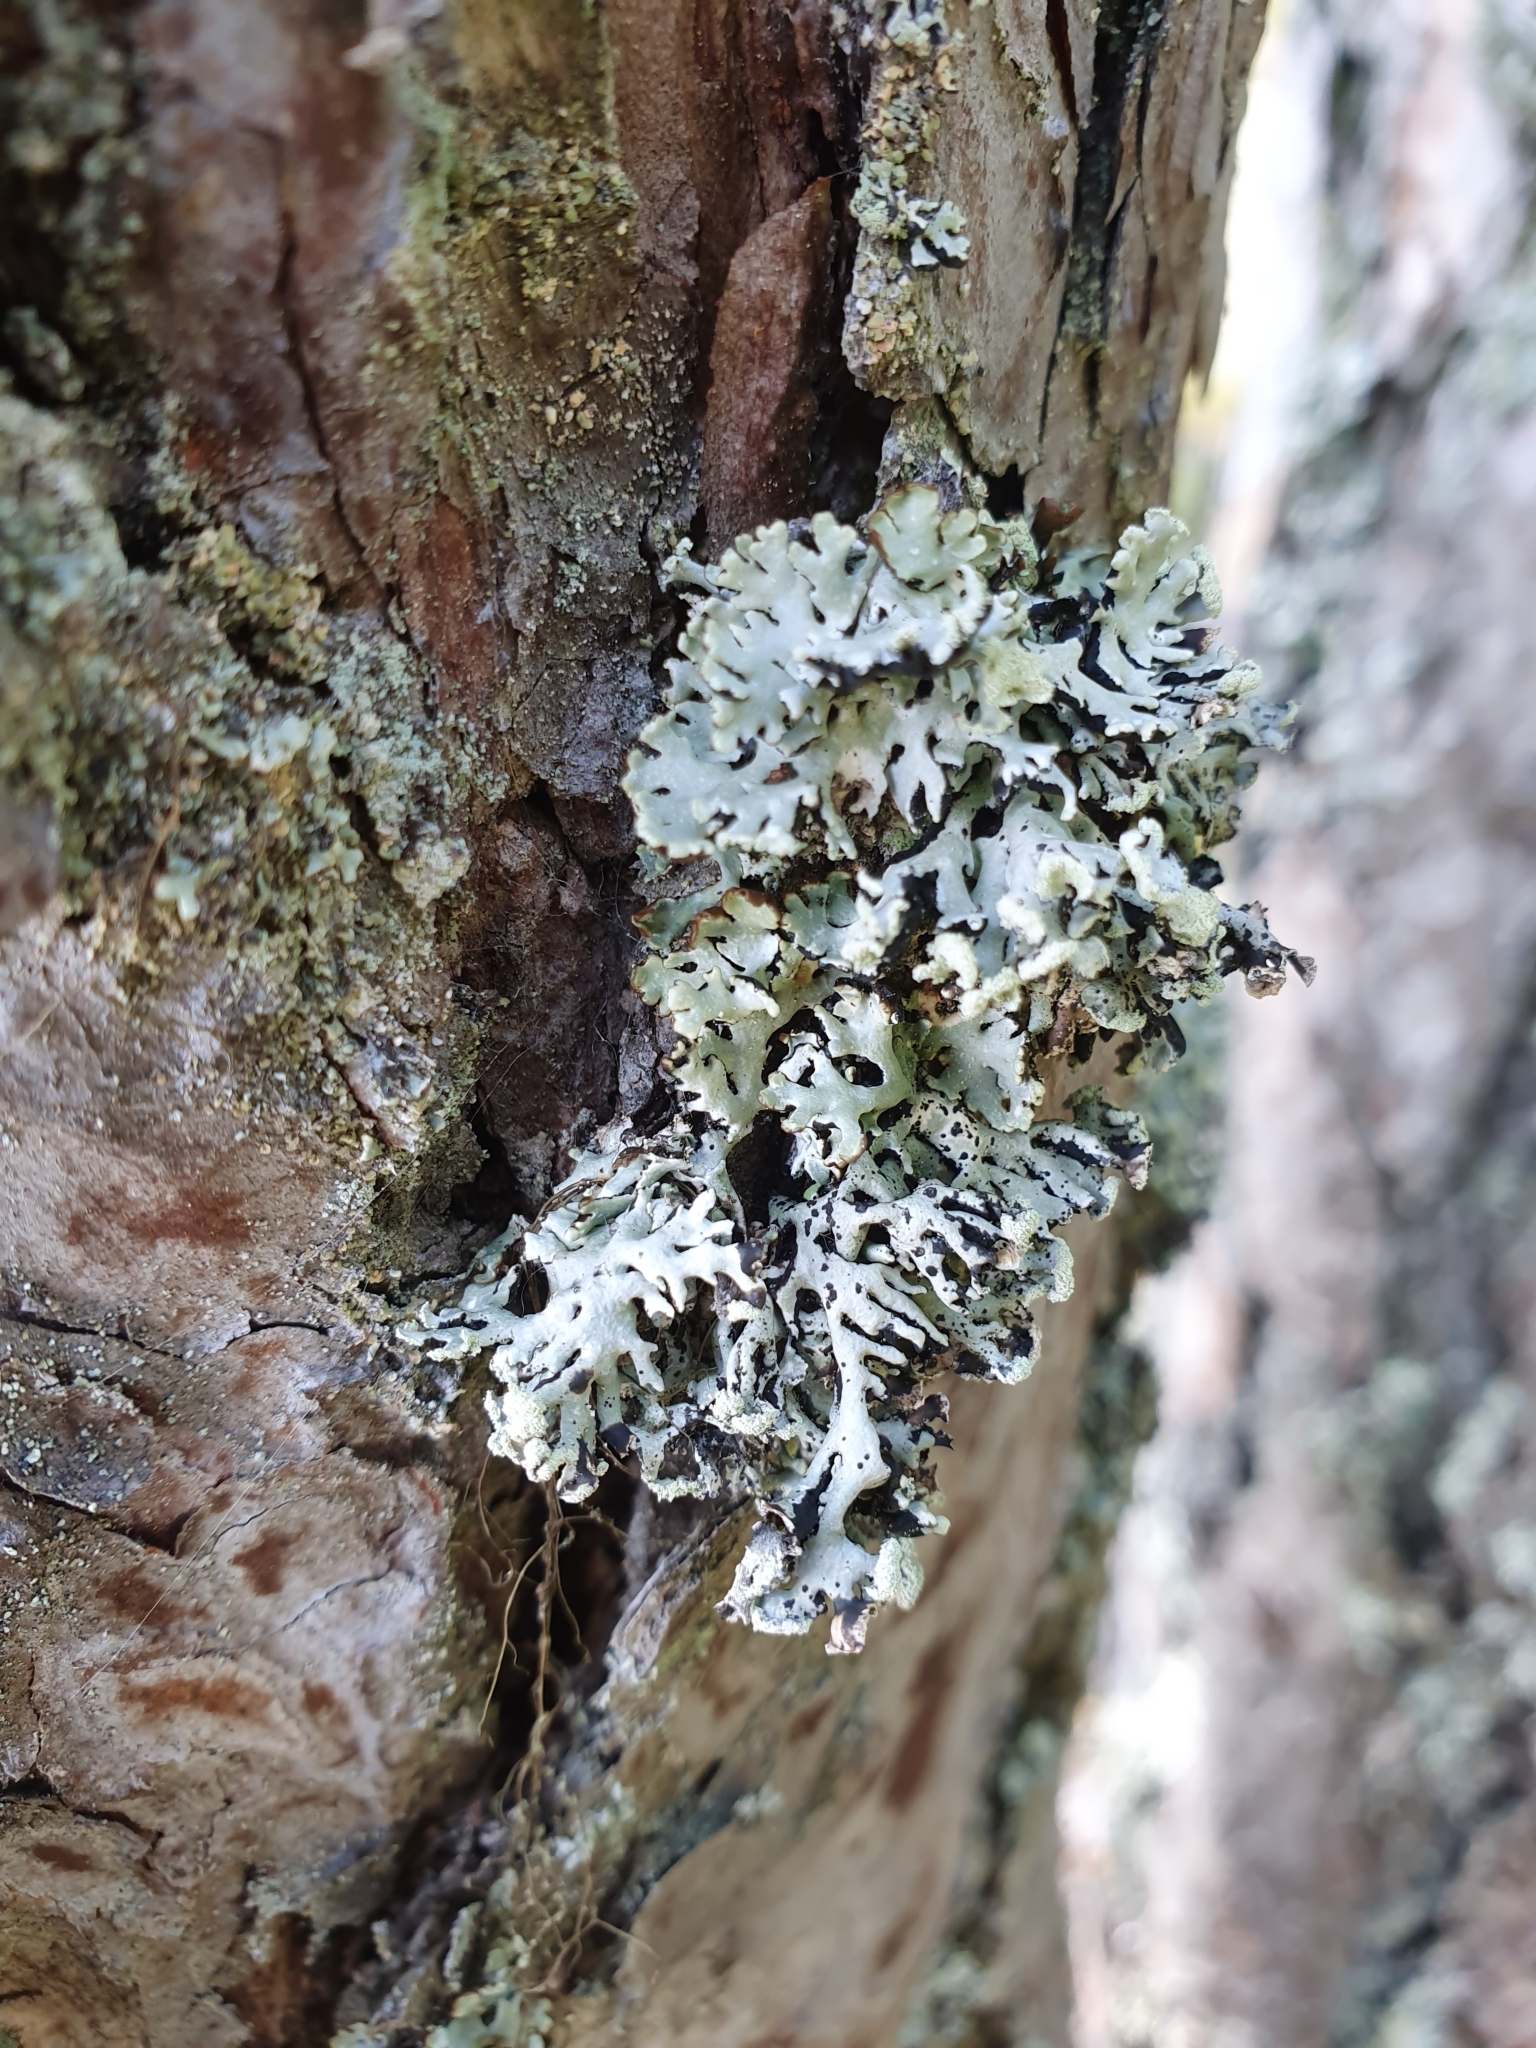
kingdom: Fungi
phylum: Ascomycota
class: Lecanoromycetes
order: Lecanorales
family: Parmeliaceae
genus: Hypogymnia
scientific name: Hypogymnia physodes
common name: Dark crottle
